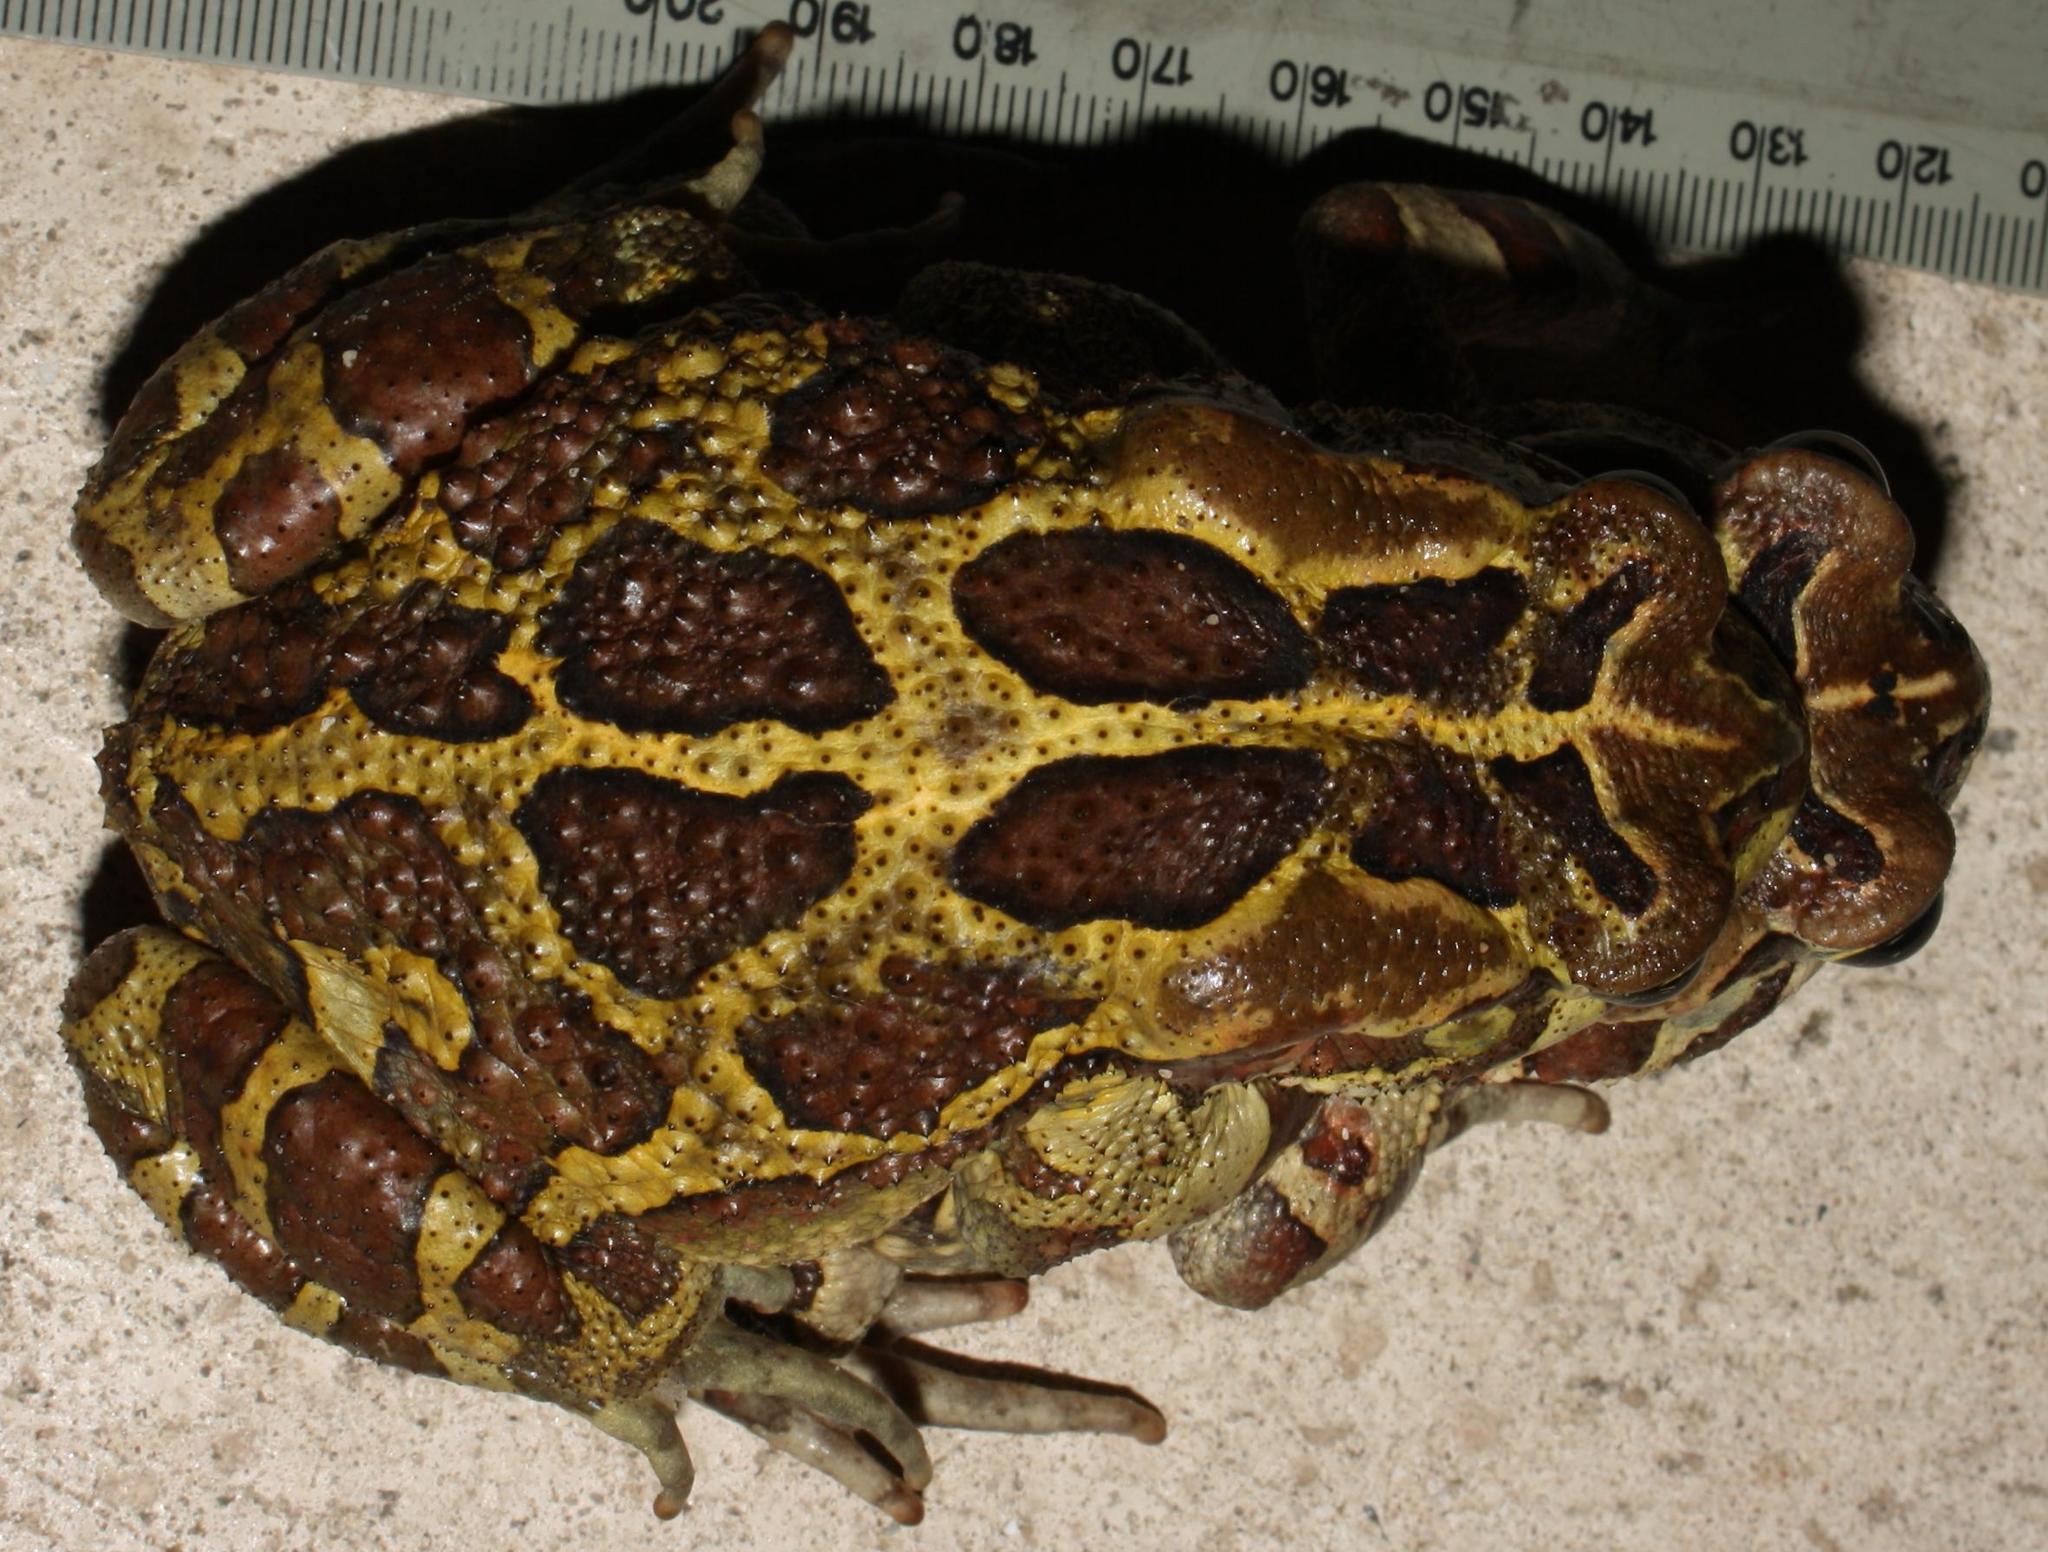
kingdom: Animalia
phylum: Chordata
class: Amphibia
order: Anura
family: Bufonidae
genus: Sclerophrys
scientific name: Sclerophrys pantherina
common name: Panther toad
